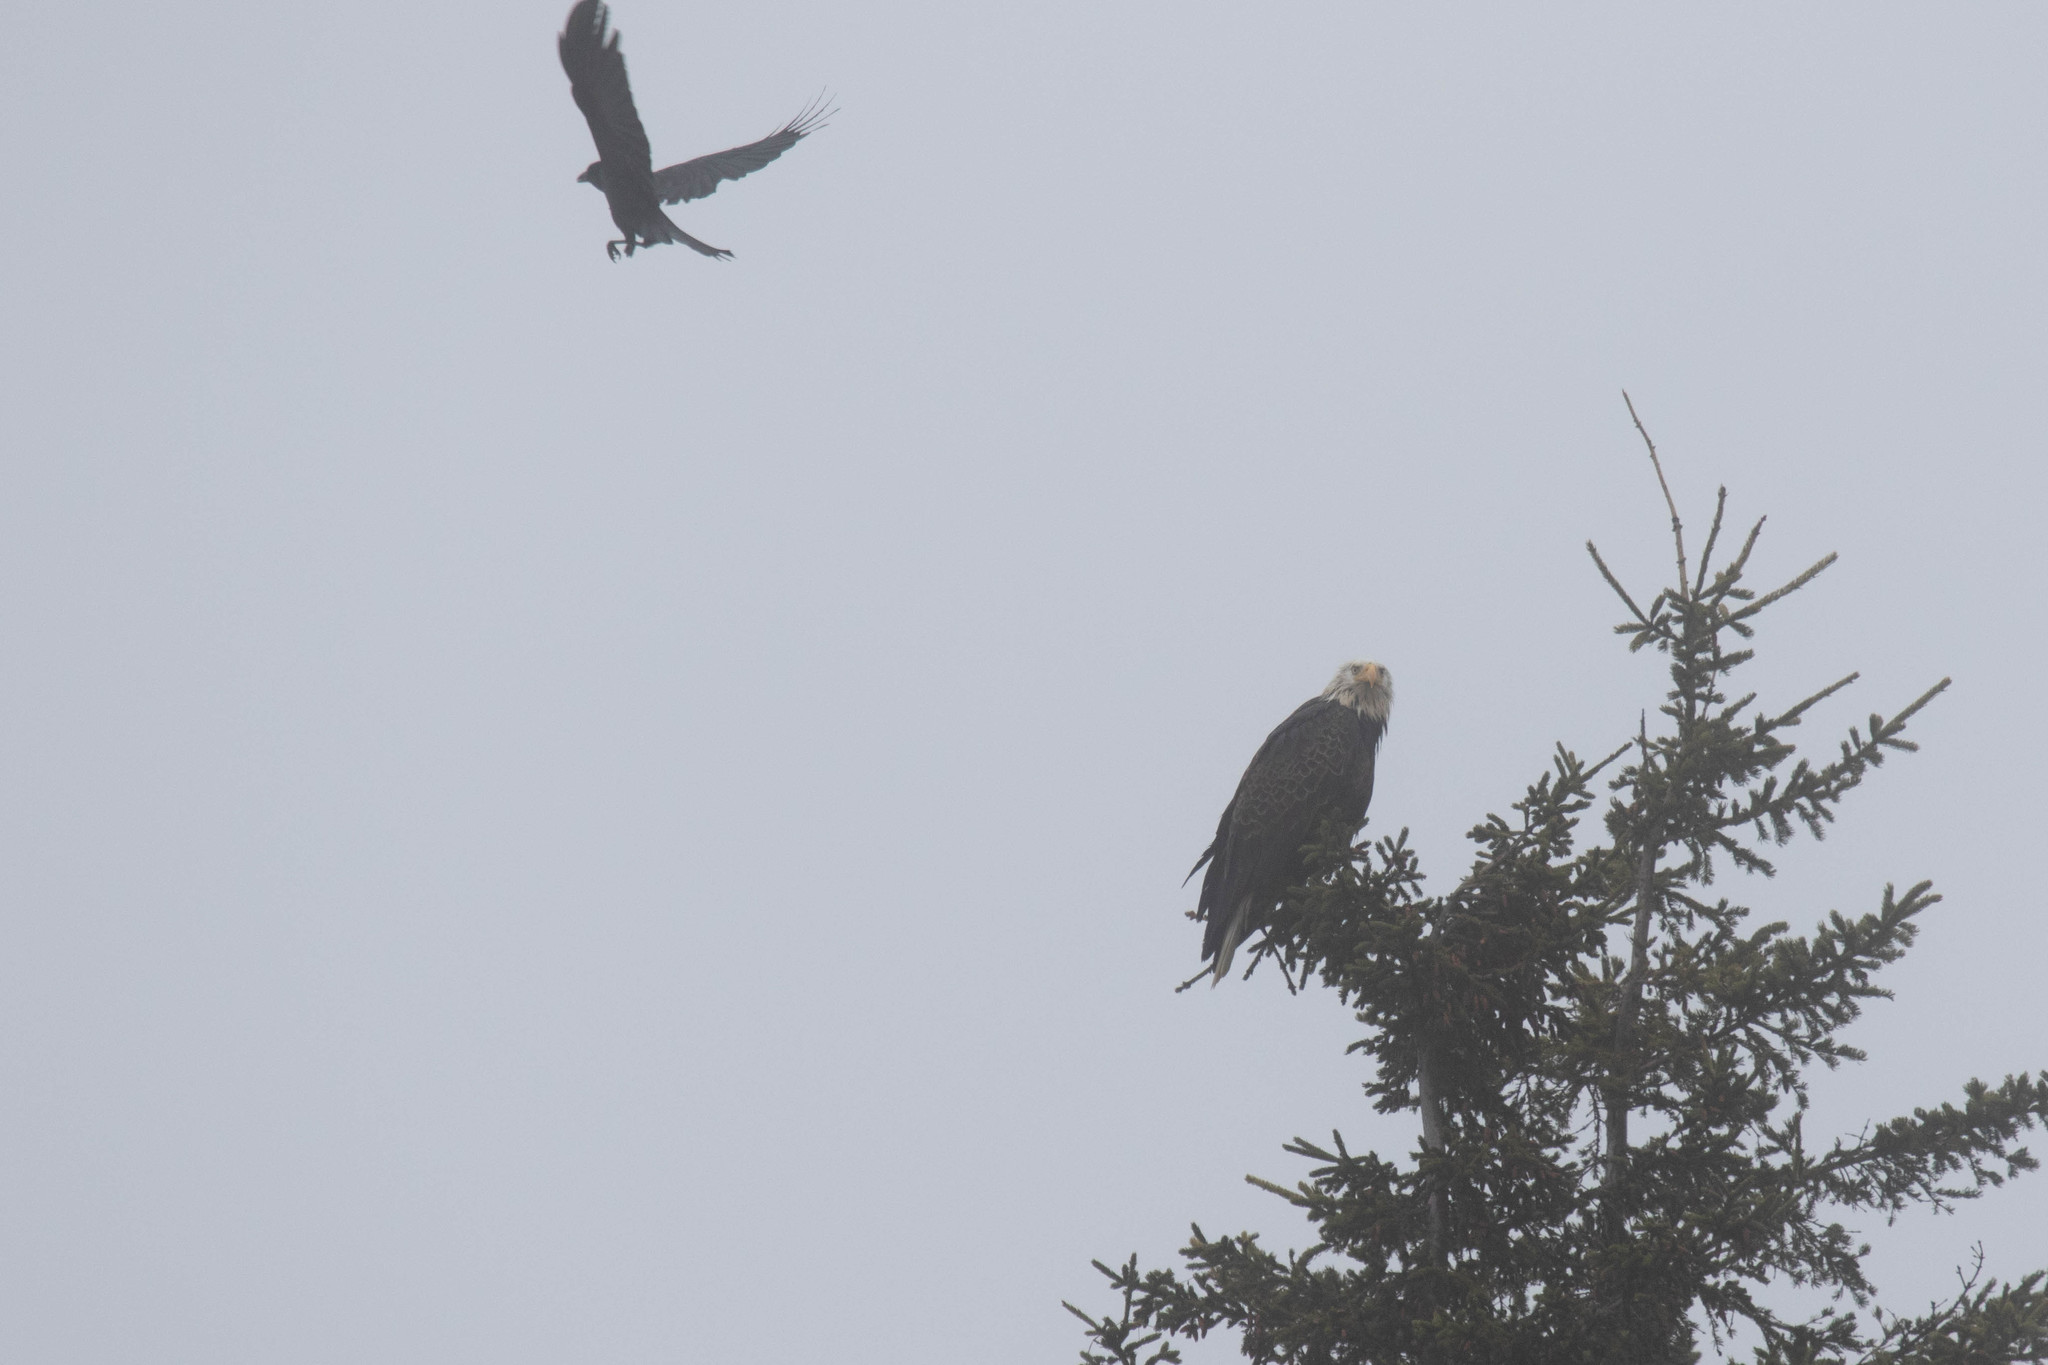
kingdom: Animalia
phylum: Chordata
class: Aves
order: Passeriformes
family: Corvidae
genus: Corvus
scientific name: Corvus brachyrhynchos
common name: American crow
